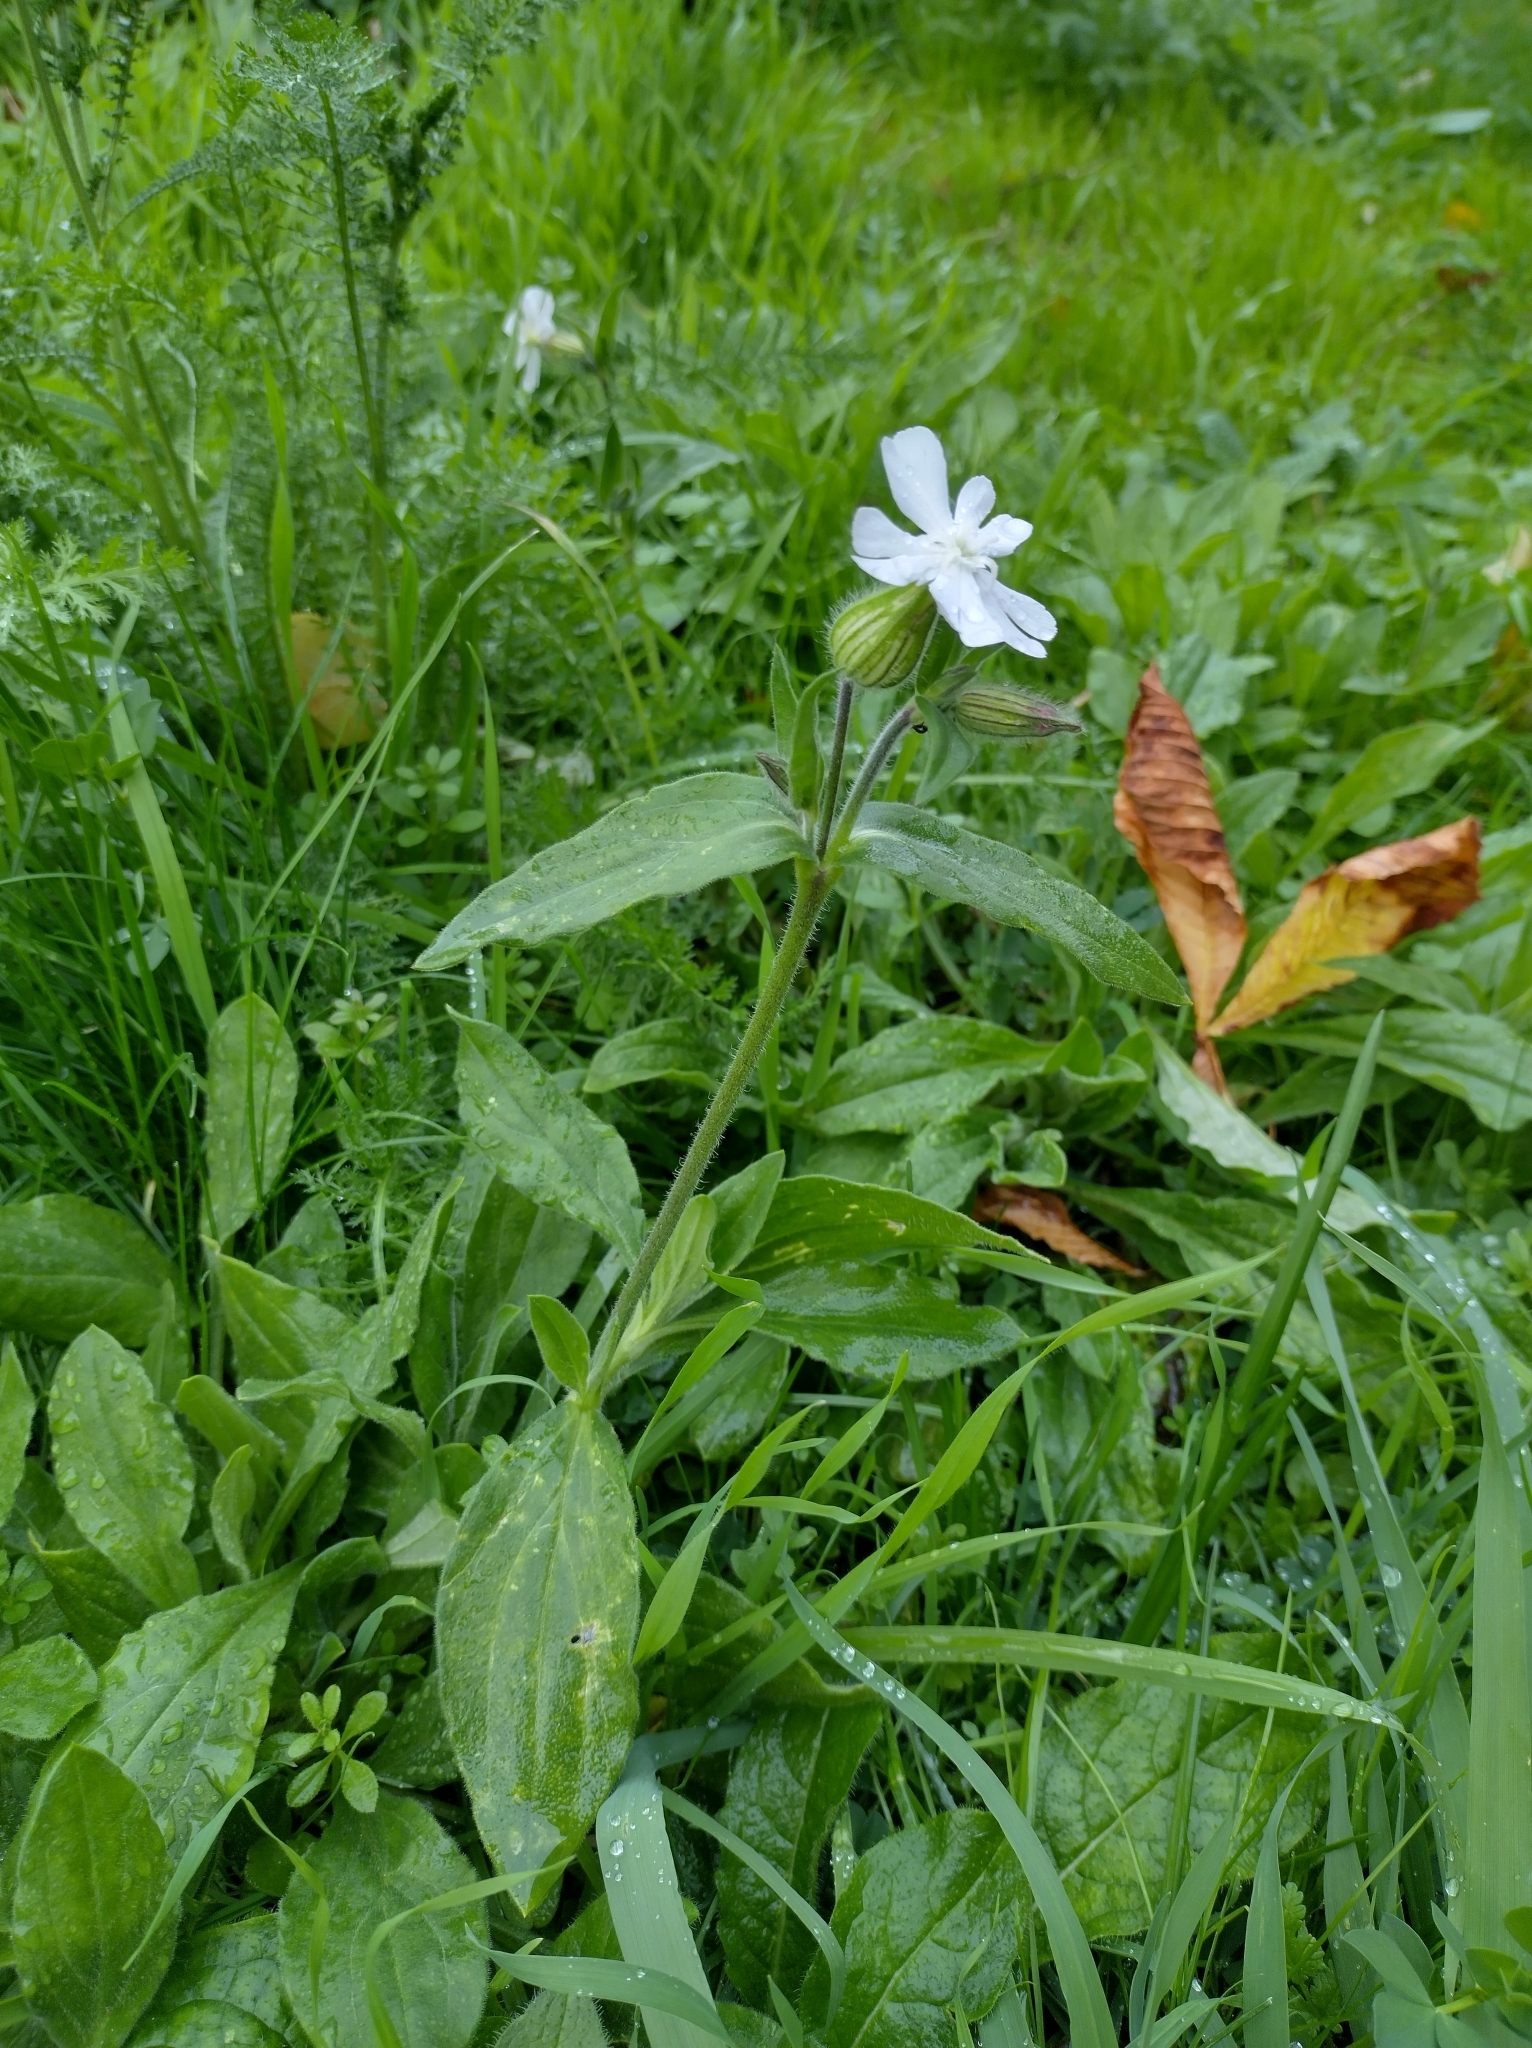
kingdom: Plantae
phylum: Tracheophyta
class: Magnoliopsida
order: Caryophyllales
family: Caryophyllaceae
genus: Silene
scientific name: Silene latifolia
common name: White campion
